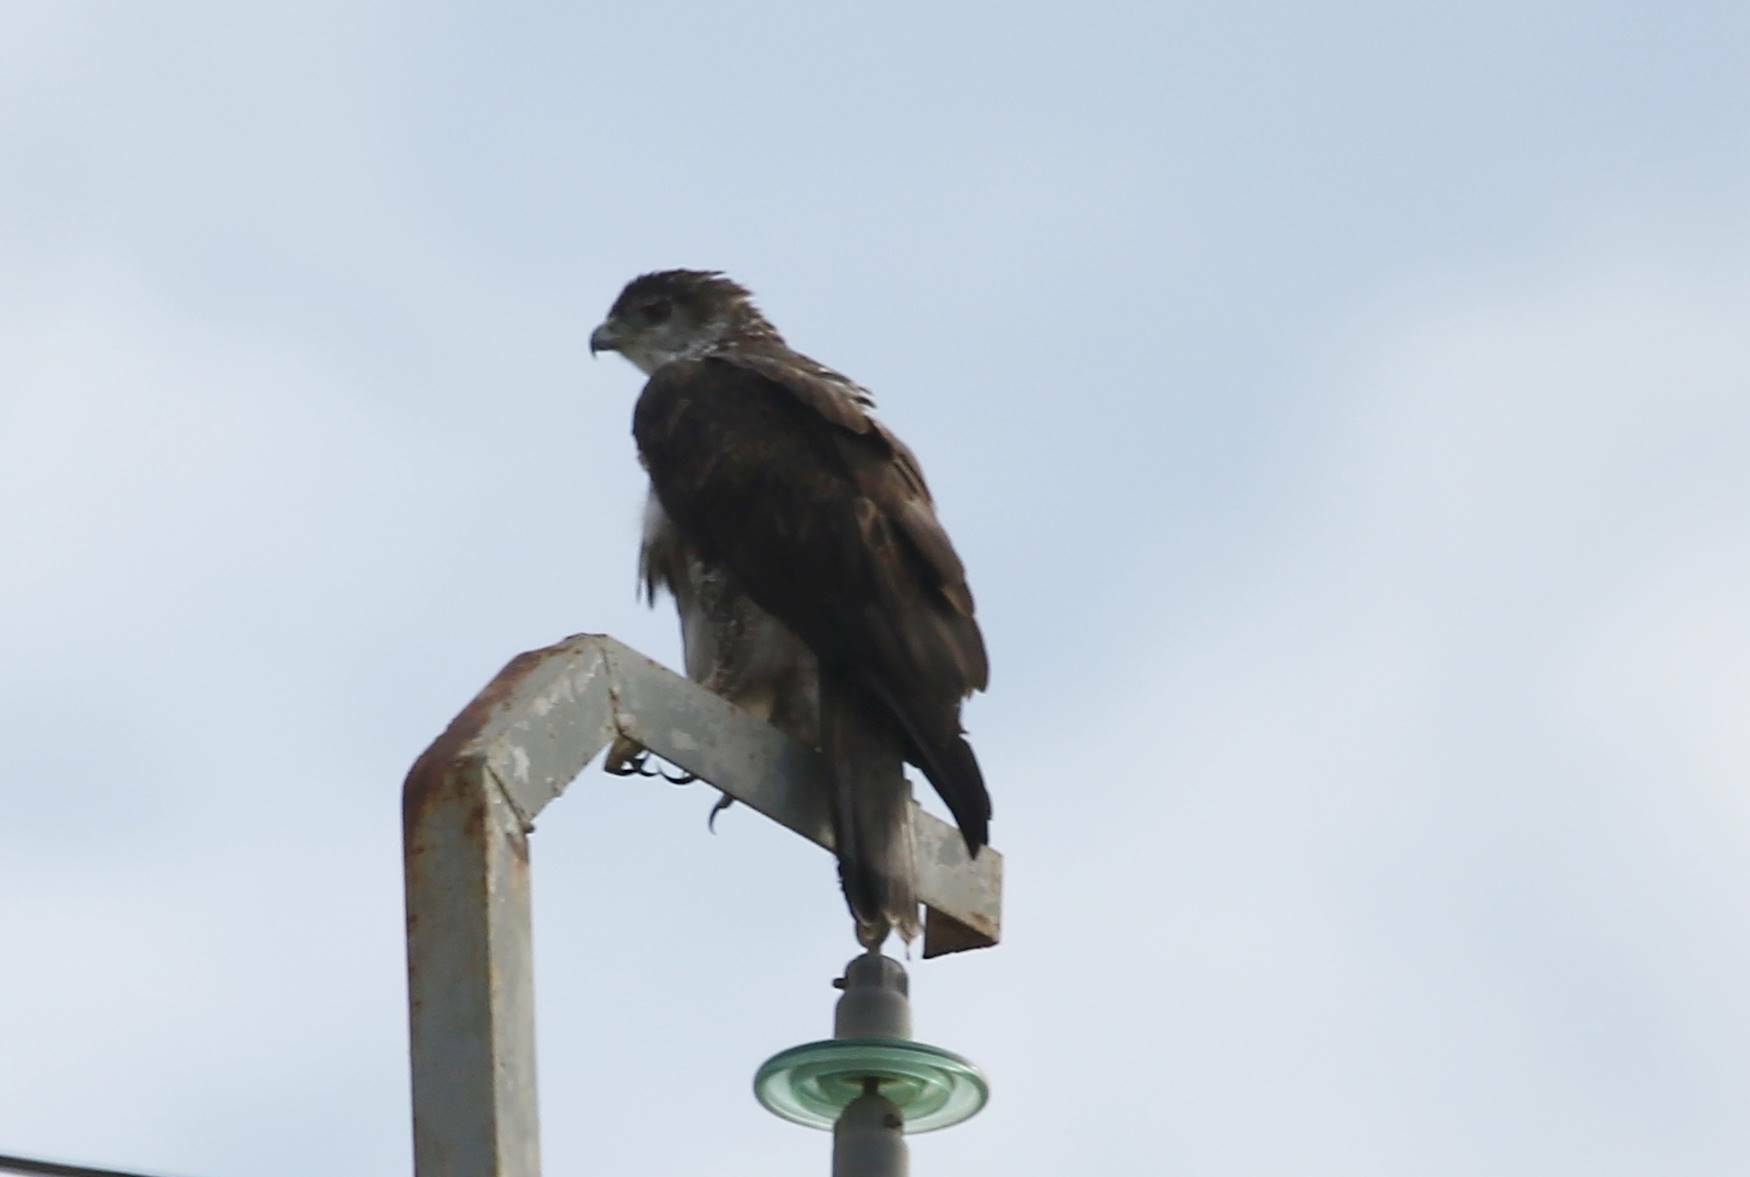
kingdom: Animalia
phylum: Chordata
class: Aves
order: Accipitriformes
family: Accipitridae
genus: Aquila
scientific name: Aquila fasciata
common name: Bonelli's eagle
